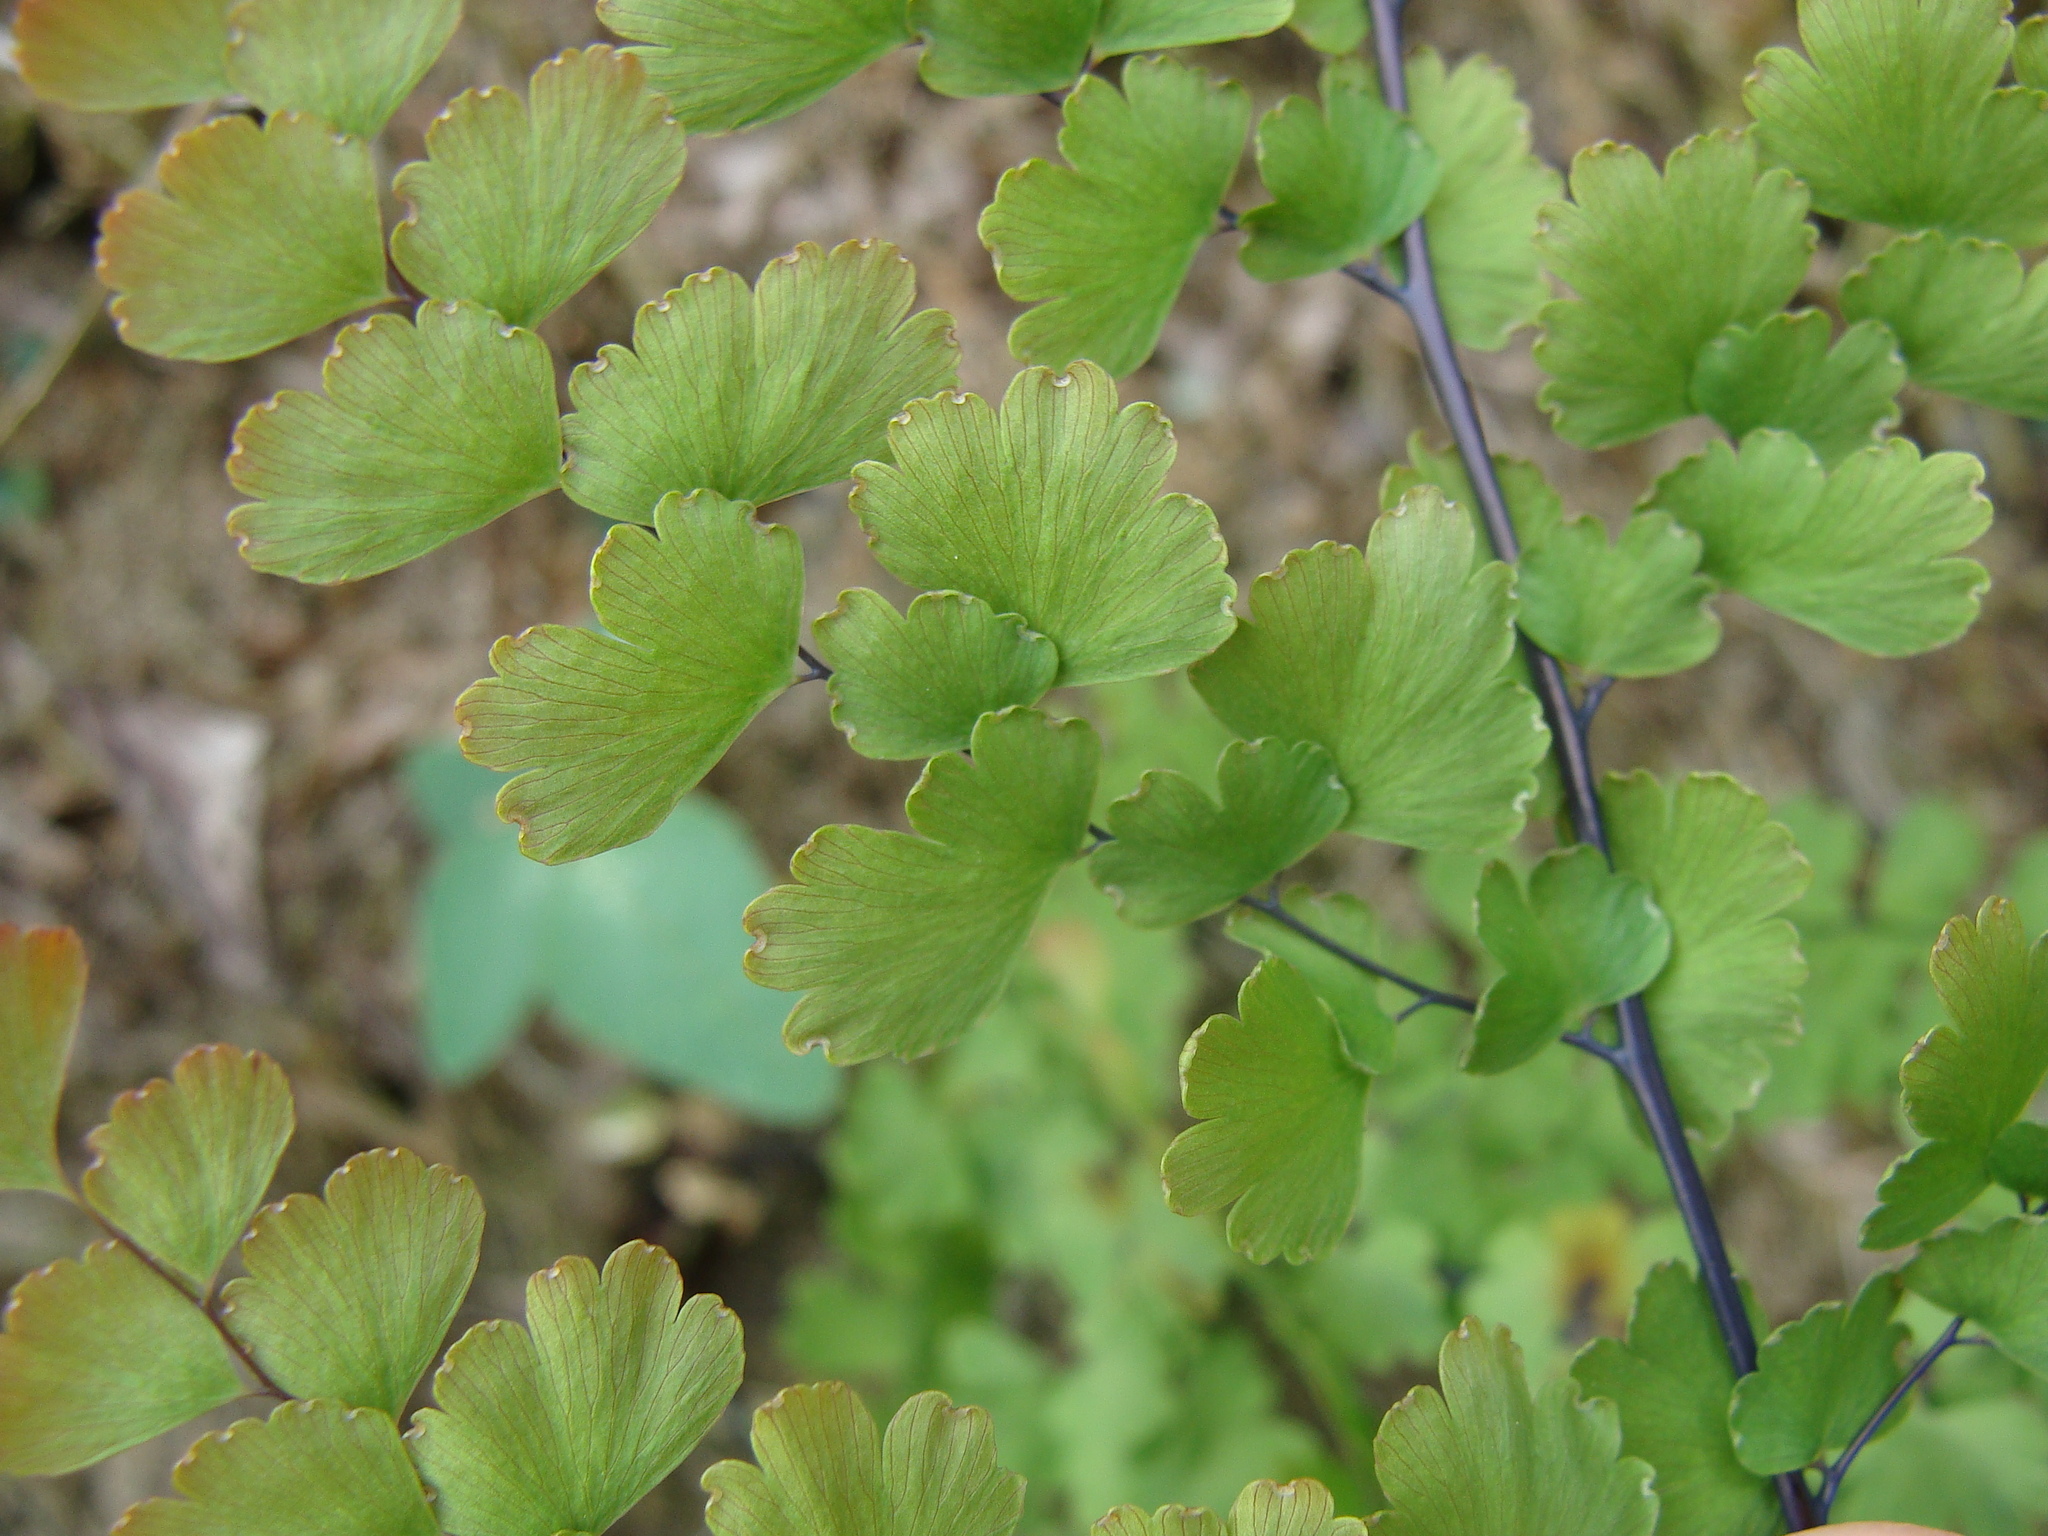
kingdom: Plantae
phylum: Tracheophyta
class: Polypodiopsida
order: Polypodiales
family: Pteridaceae
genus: Adiantum
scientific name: Adiantum concinnum
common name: Brittle maidenhair fern
